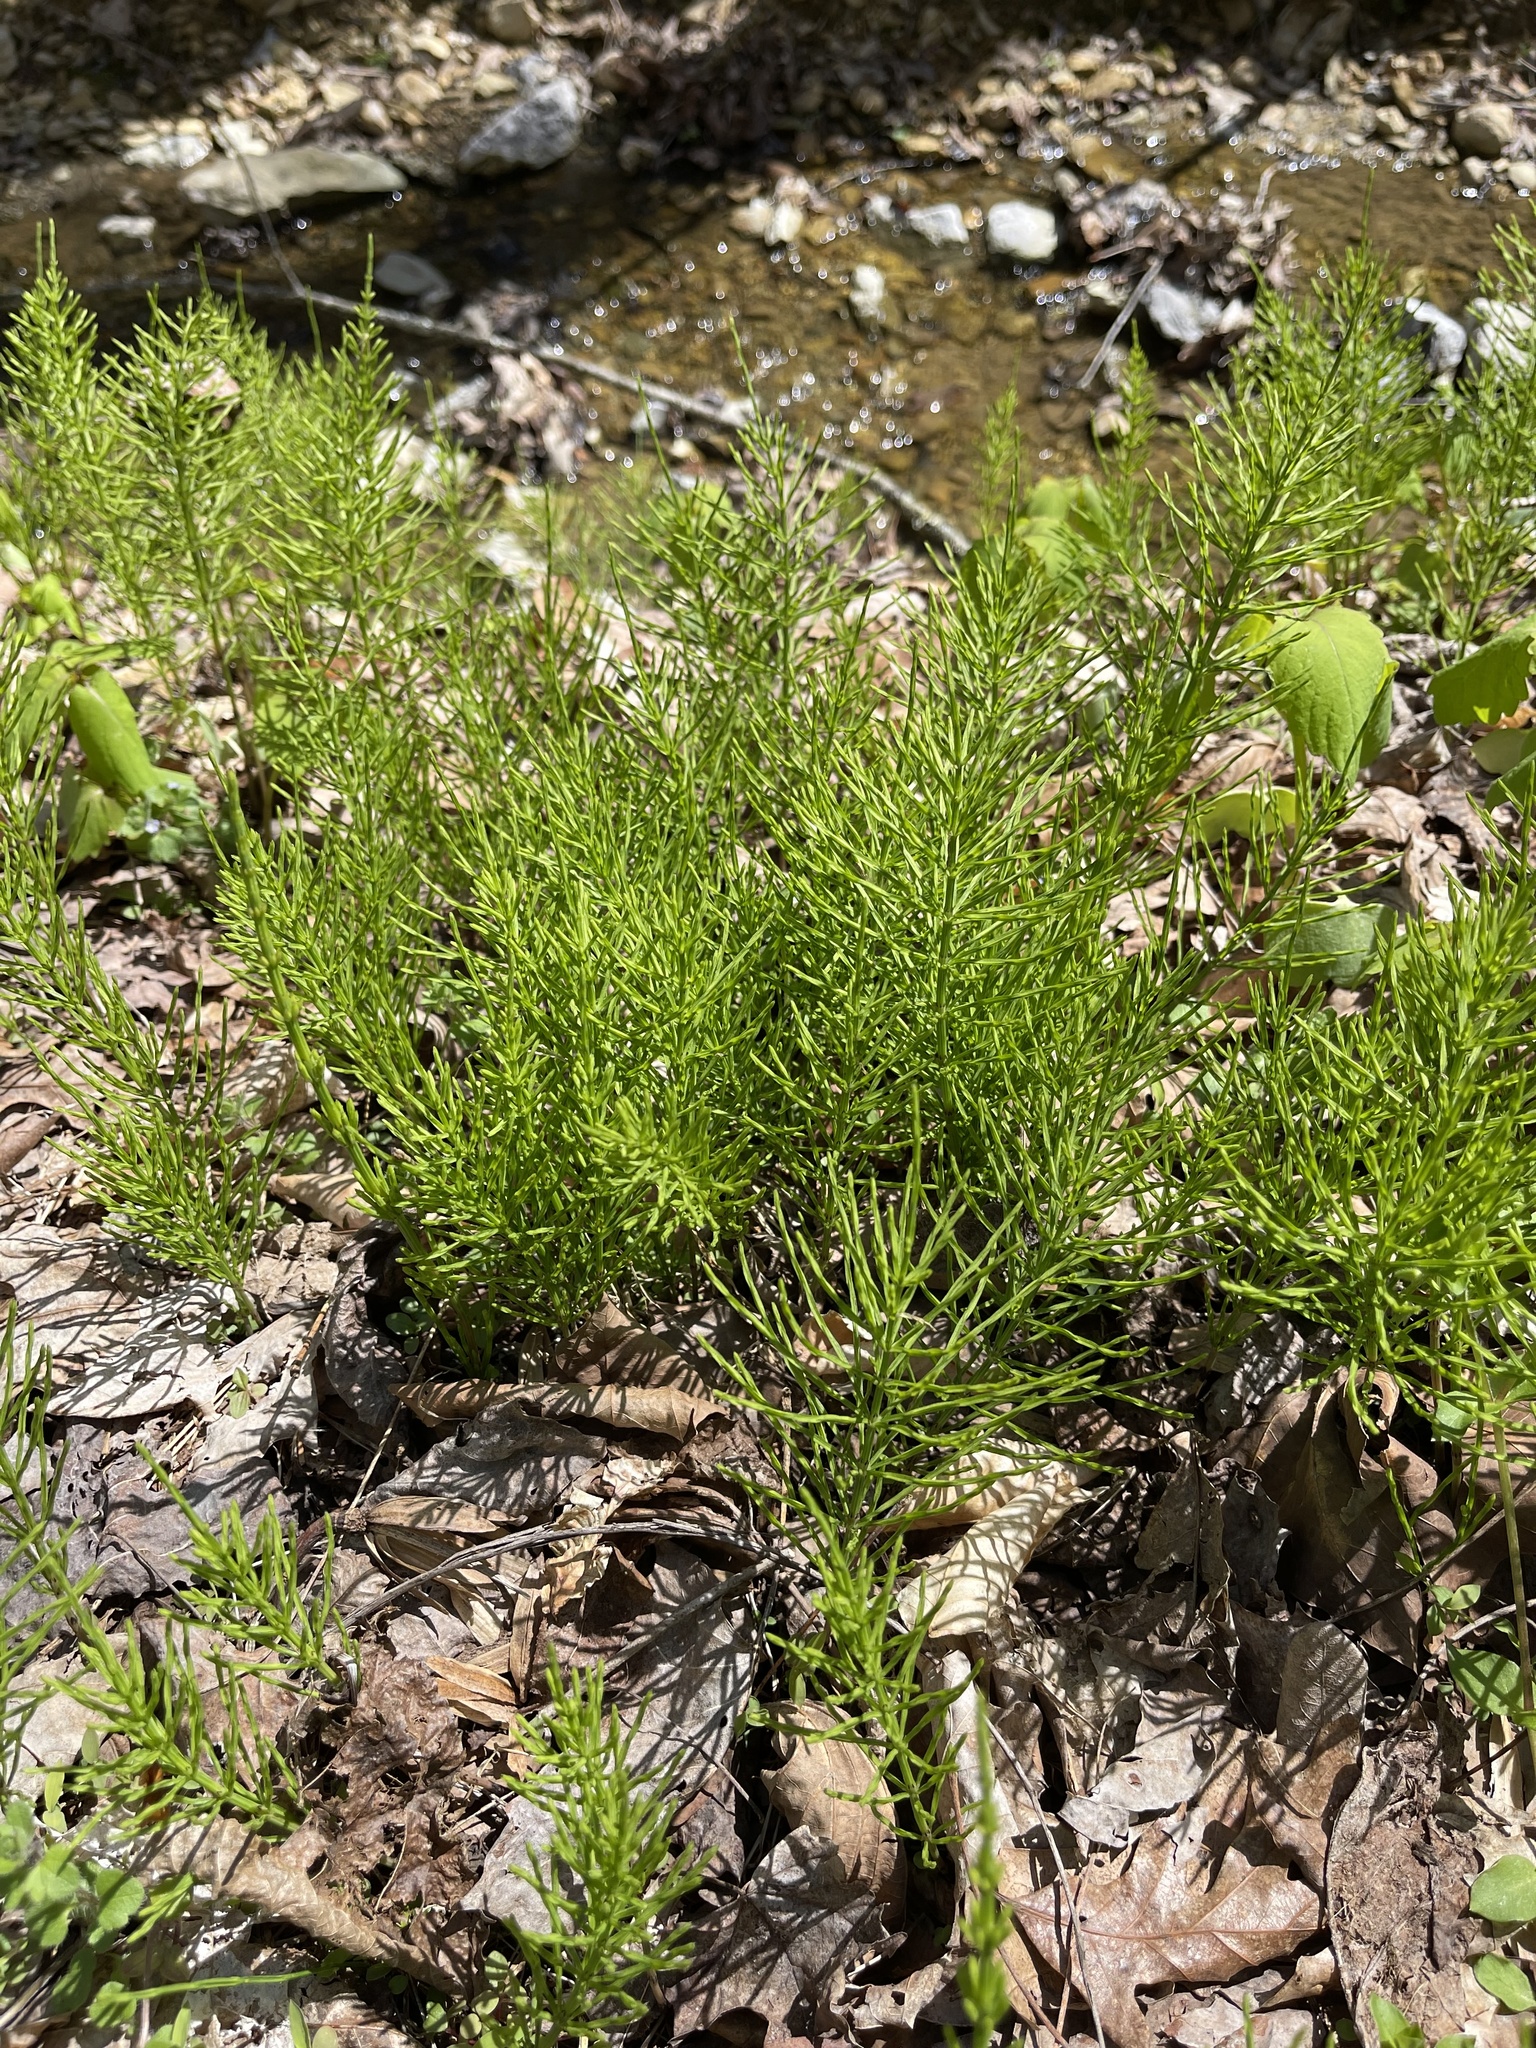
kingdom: Plantae
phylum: Tracheophyta
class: Polypodiopsida
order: Equisetales
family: Equisetaceae
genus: Equisetum
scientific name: Equisetum arvense
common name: Field horsetail
